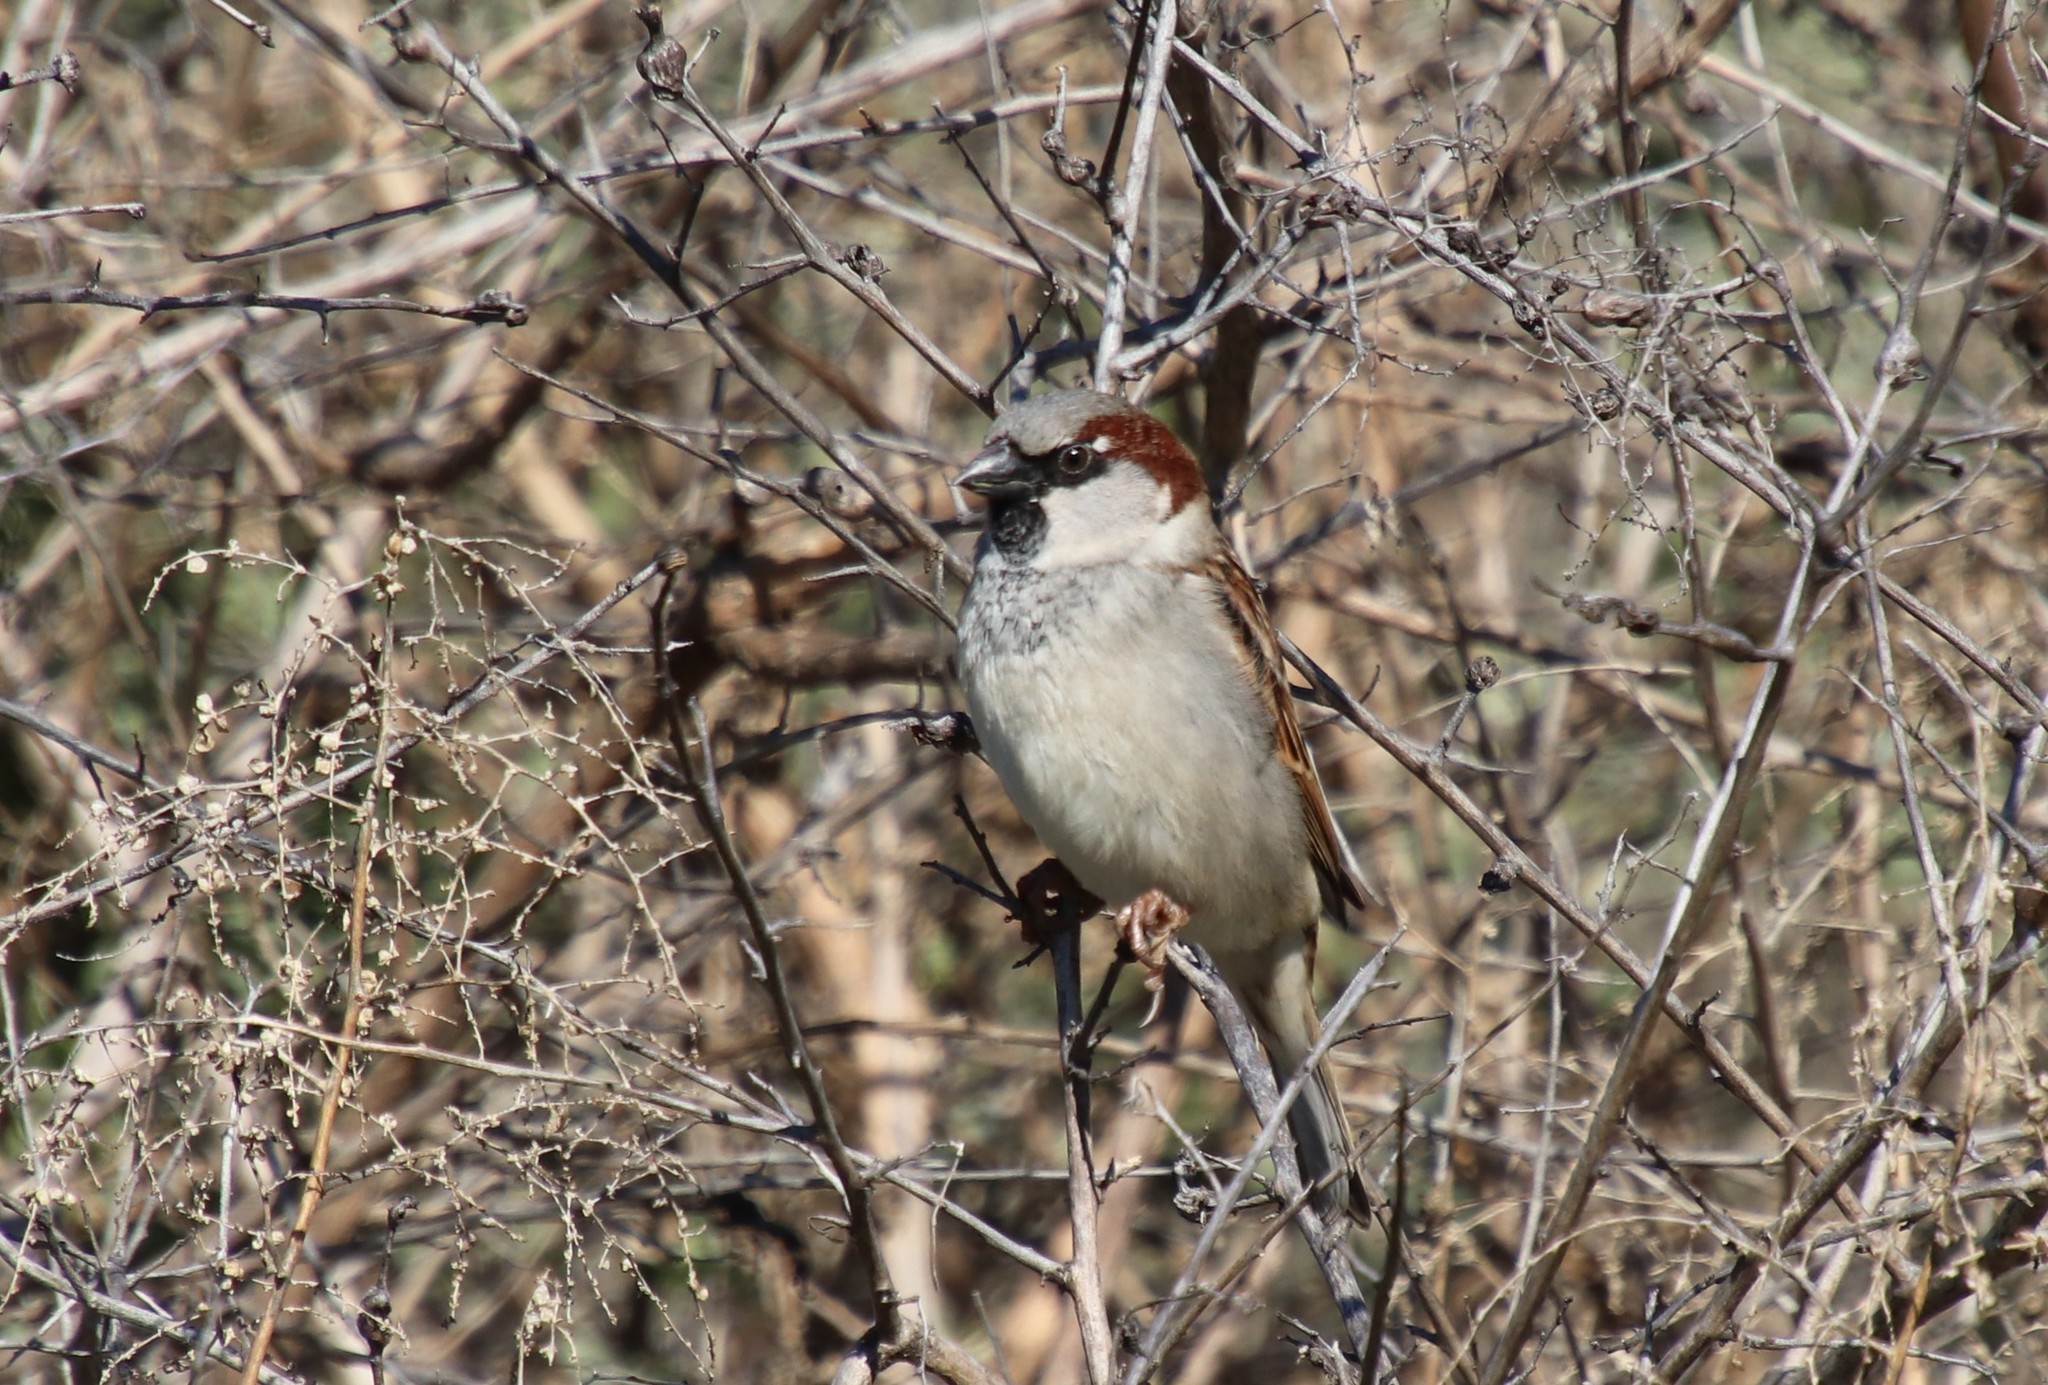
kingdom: Animalia
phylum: Chordata
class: Aves
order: Passeriformes
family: Passeridae
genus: Passer
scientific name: Passer domesticus
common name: House sparrow
